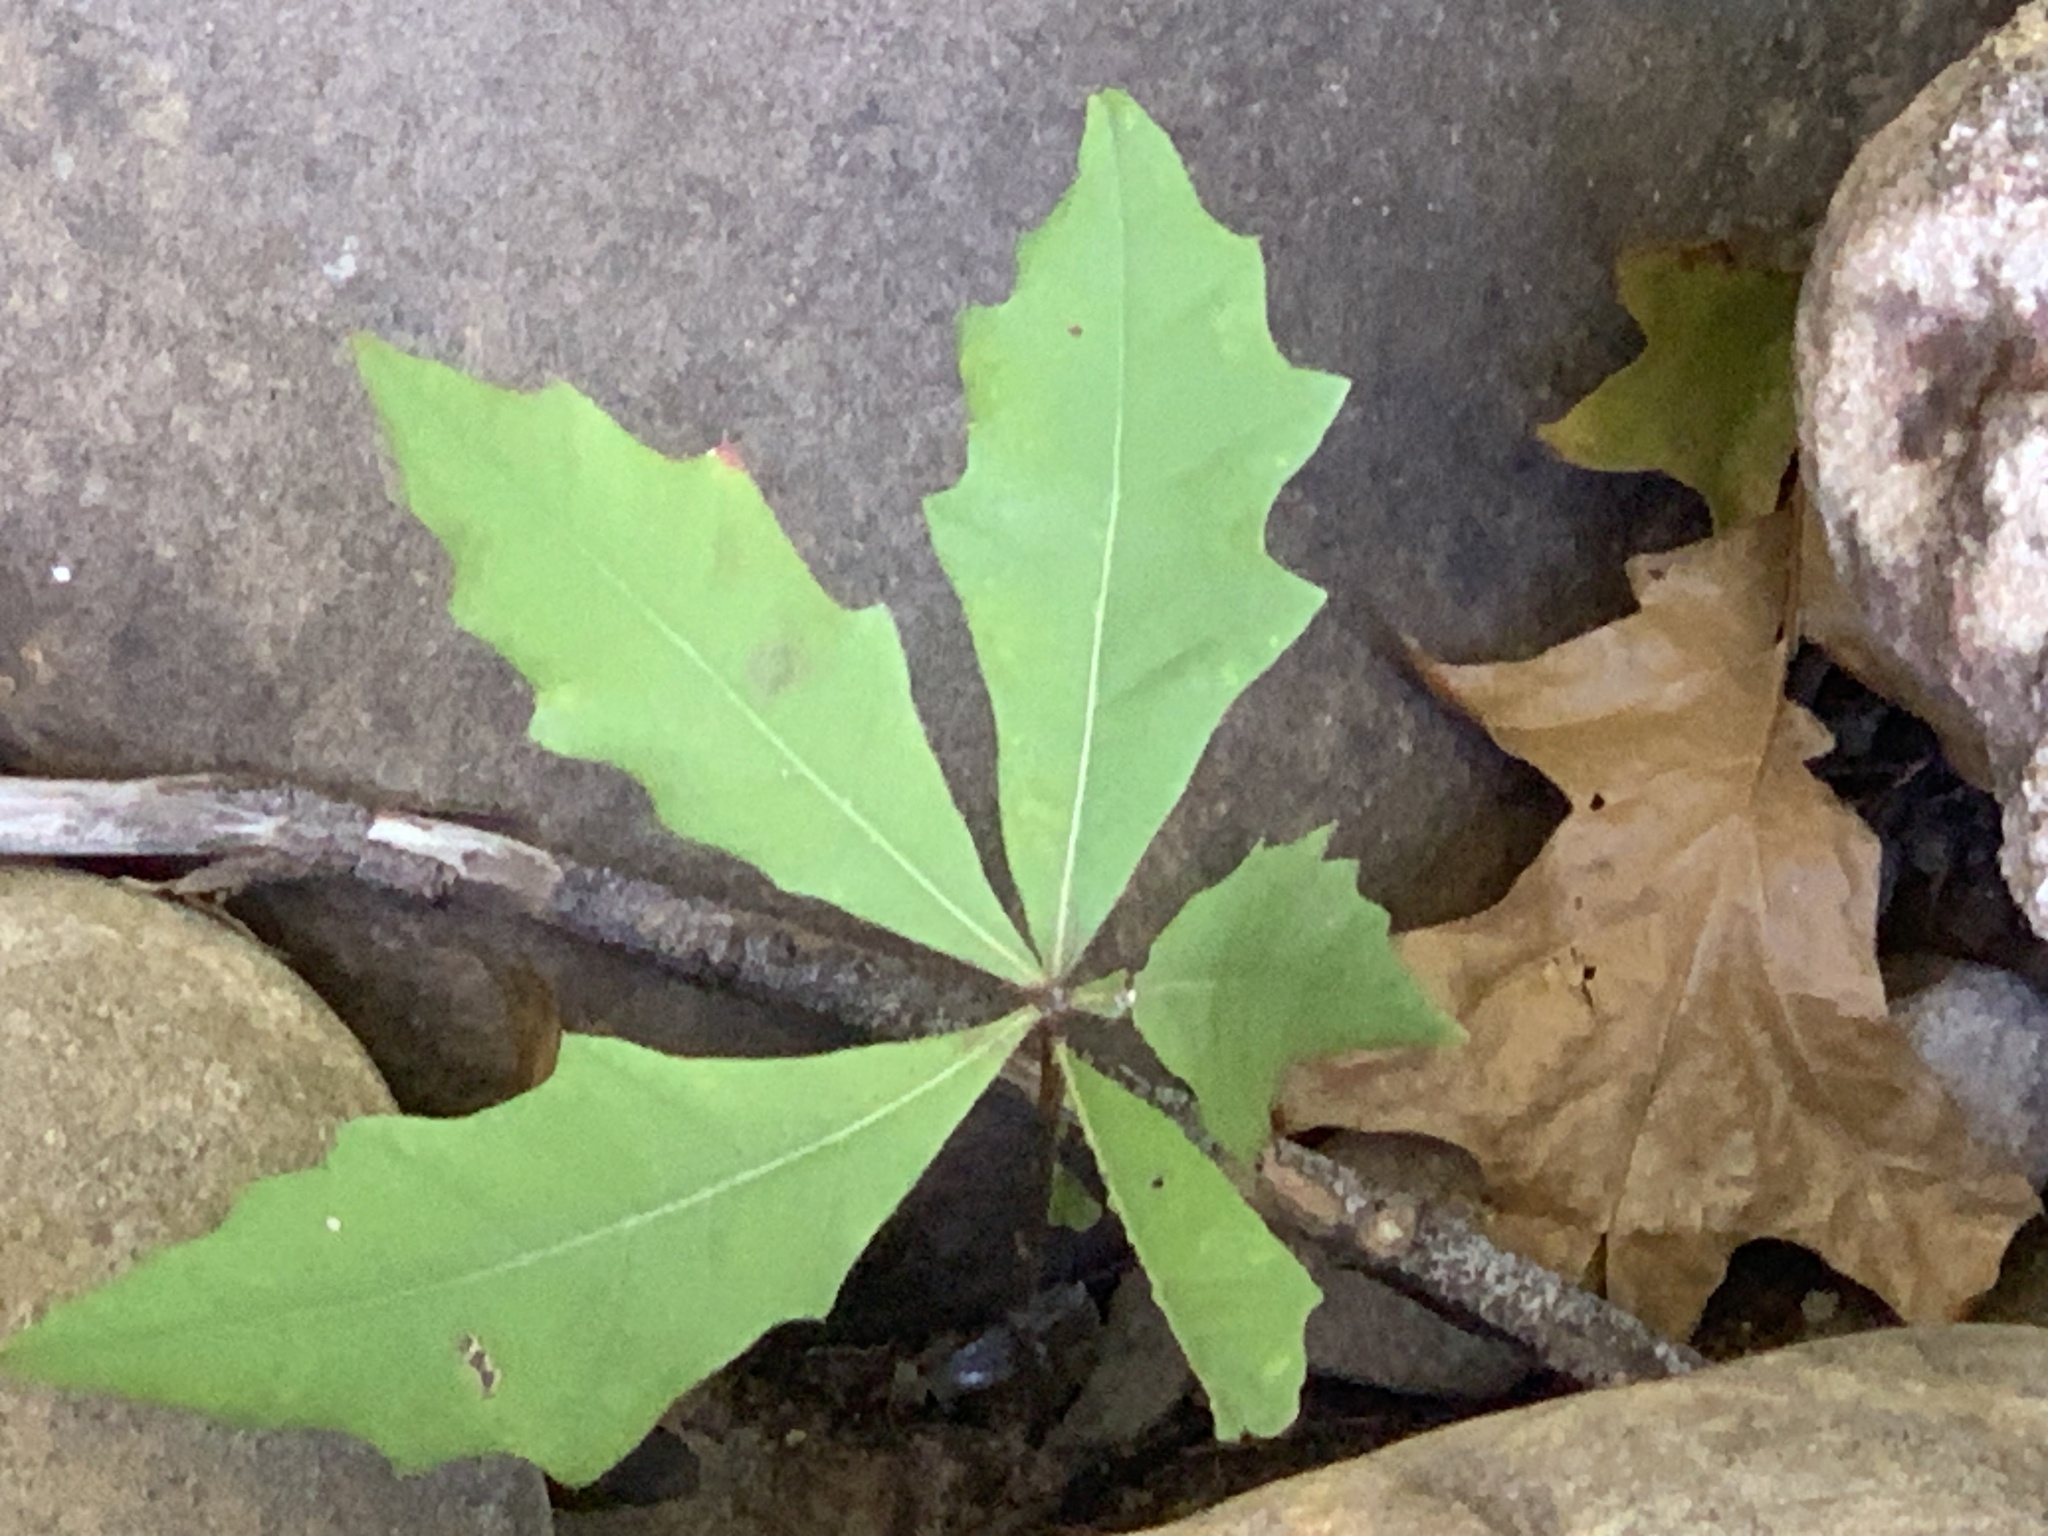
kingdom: Plantae
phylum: Tracheophyta
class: Magnoliopsida
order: Fagales
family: Fagaceae
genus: Quercus
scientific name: Quercus palustris
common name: Pin oak
